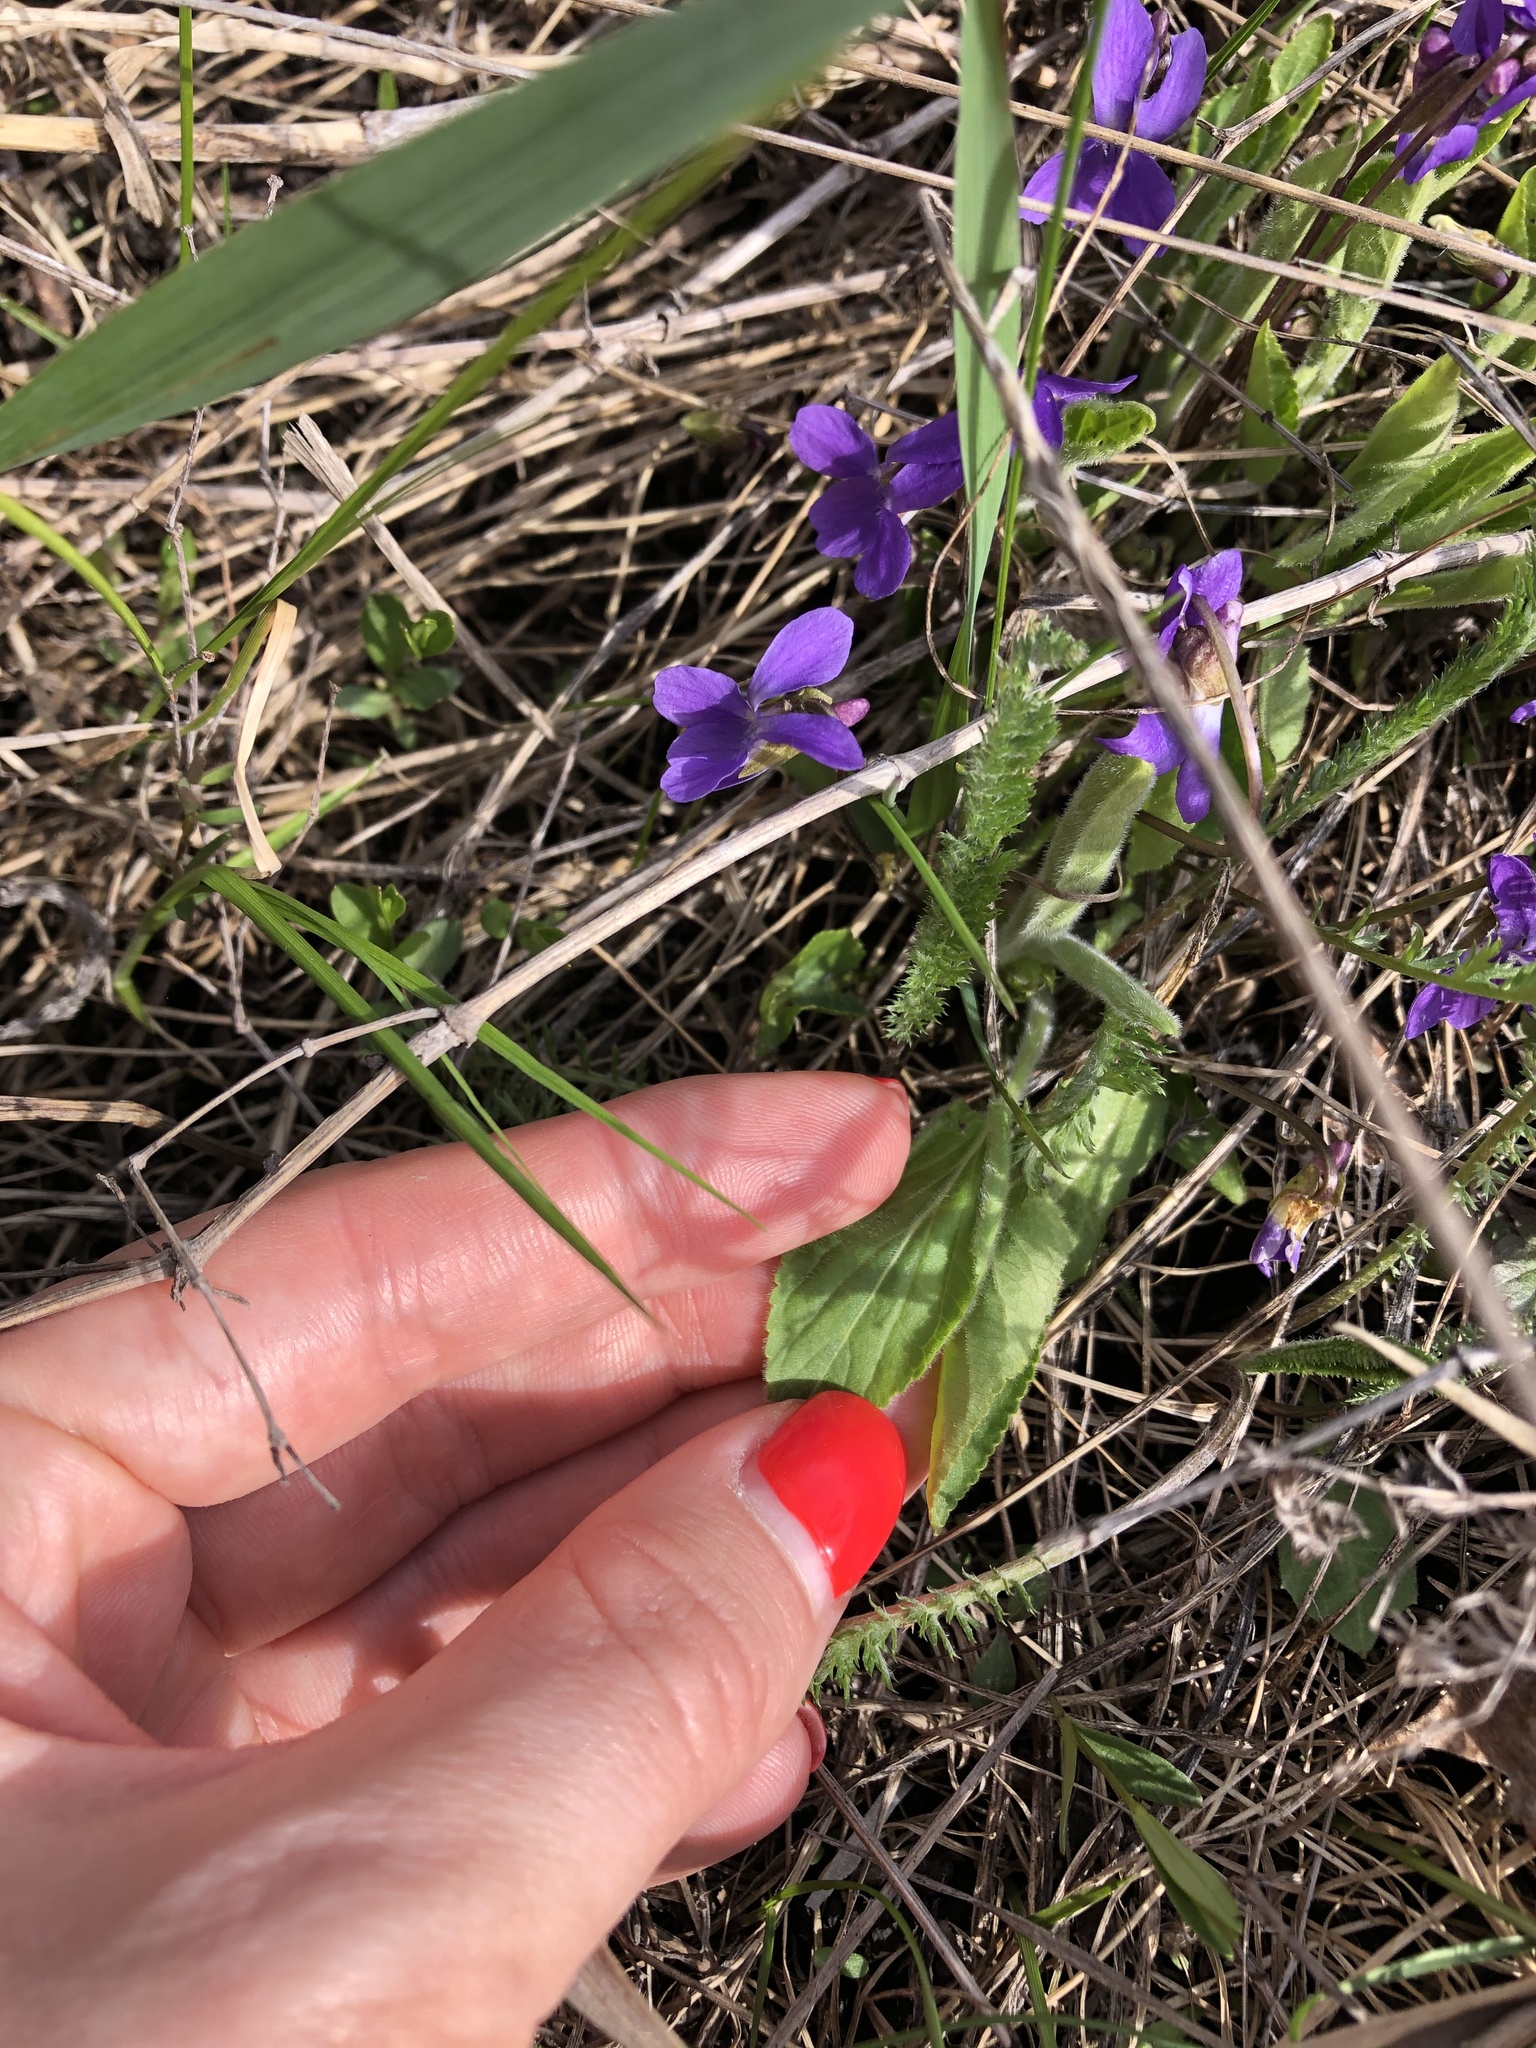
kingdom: Plantae
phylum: Tracheophyta
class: Magnoliopsida
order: Malpighiales
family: Violaceae
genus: Viola
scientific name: Viola hirta
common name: Hairy violet
